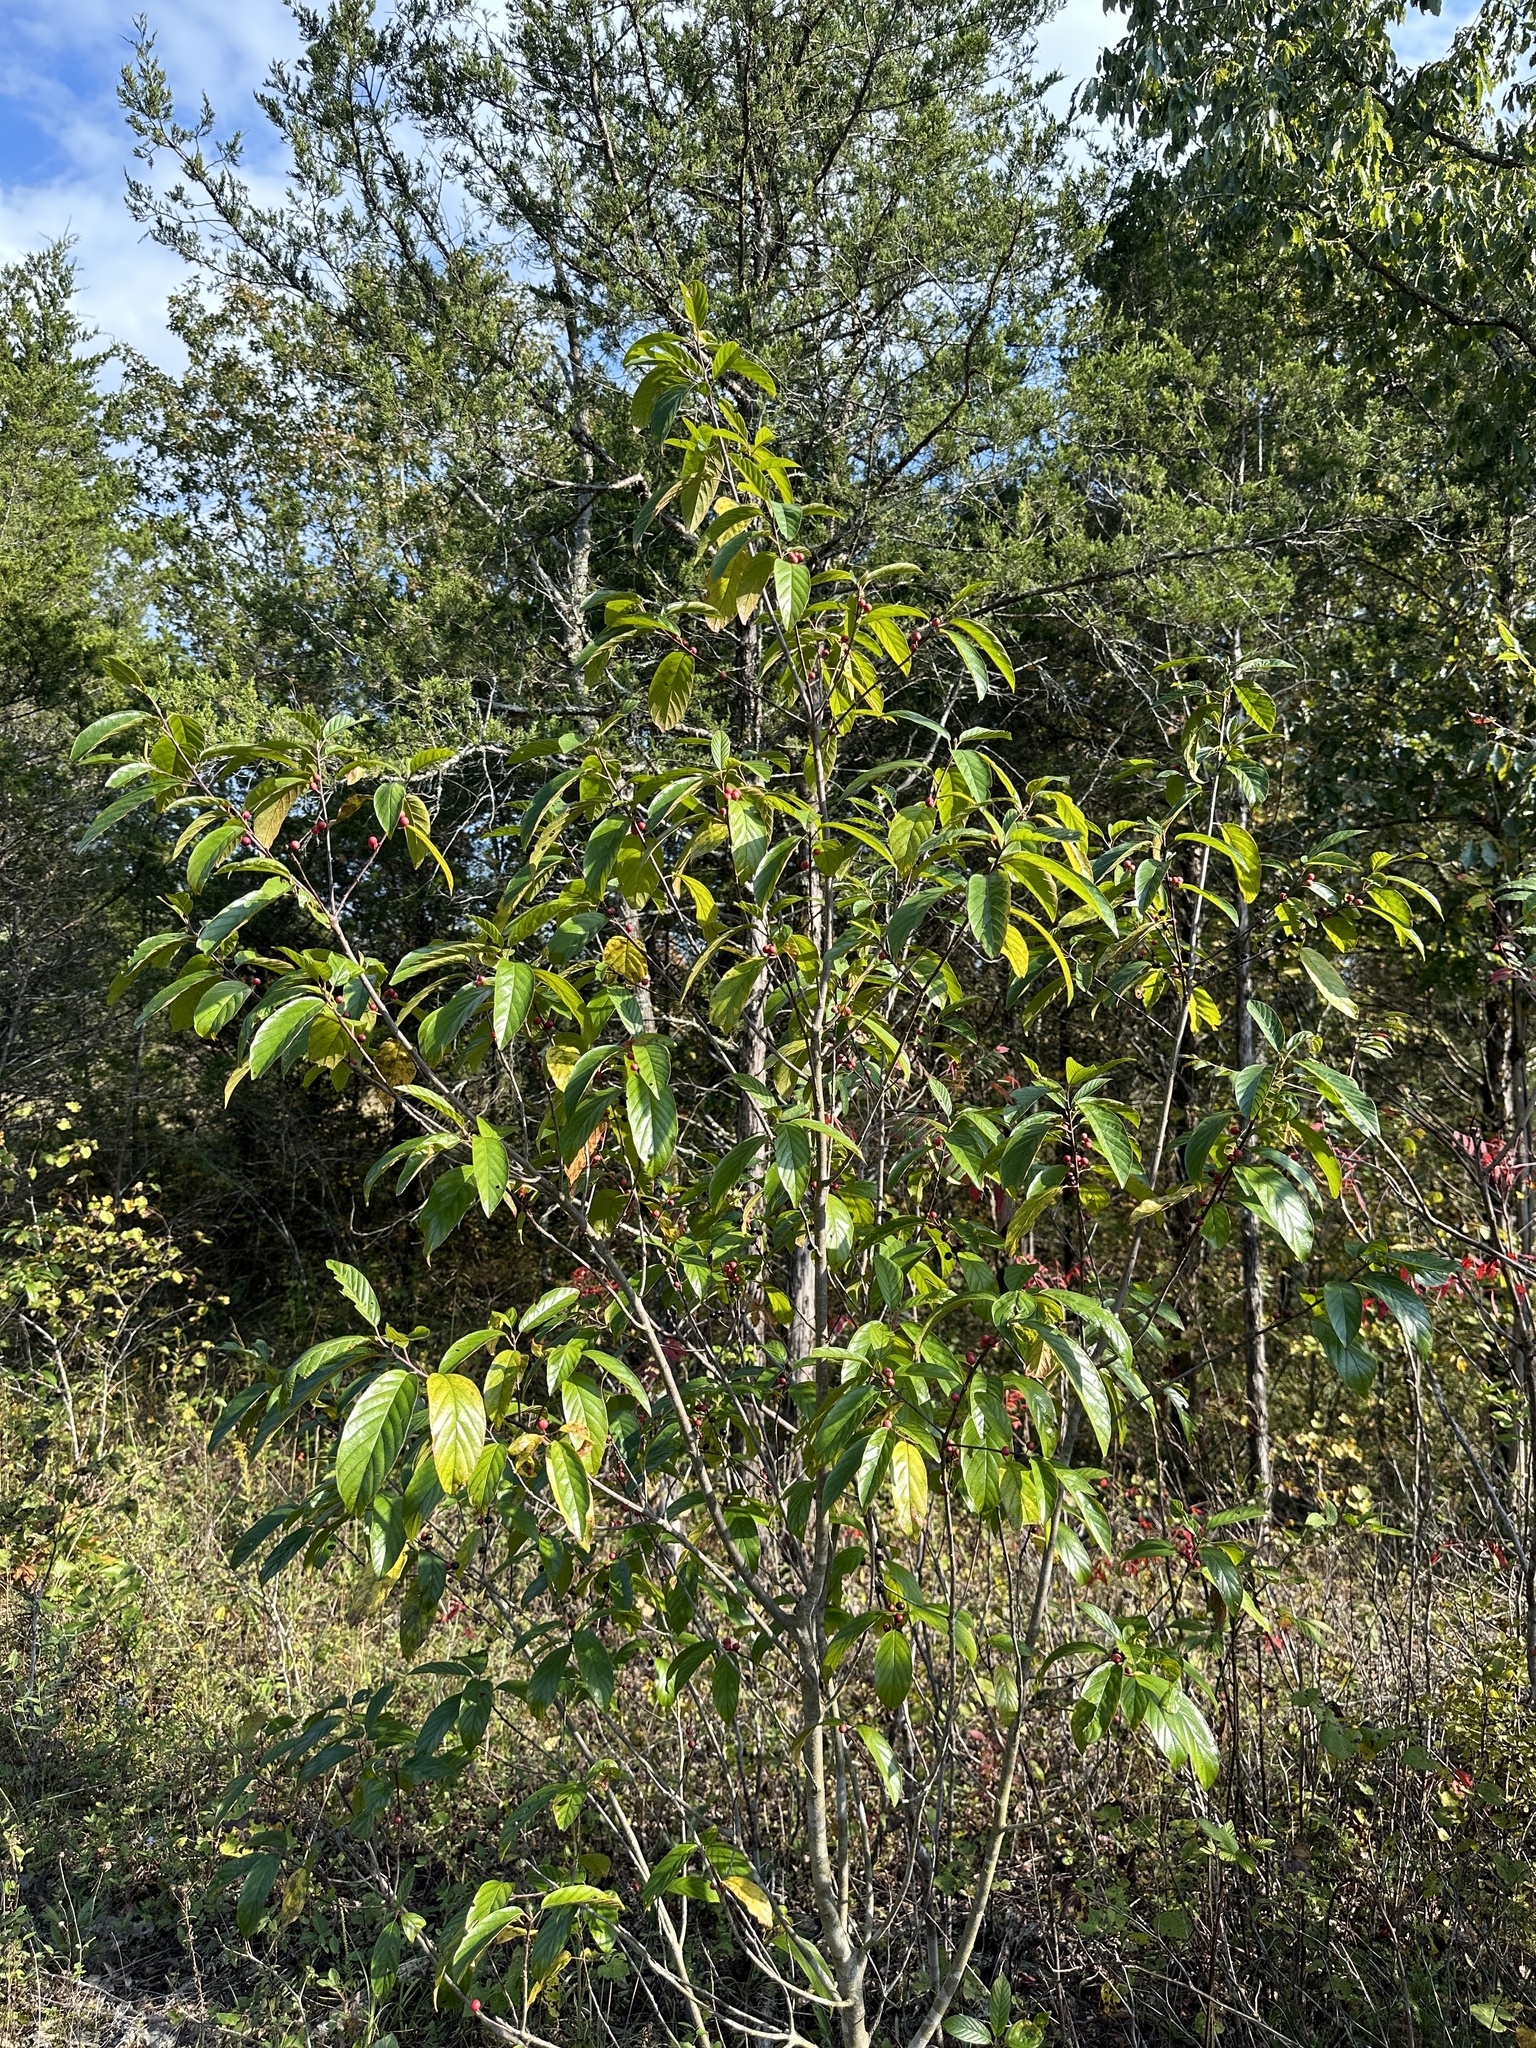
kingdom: Plantae
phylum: Tracheophyta
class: Magnoliopsida
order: Rosales
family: Rhamnaceae
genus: Frangula
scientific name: Frangula caroliniana
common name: Carolina buckthorn
